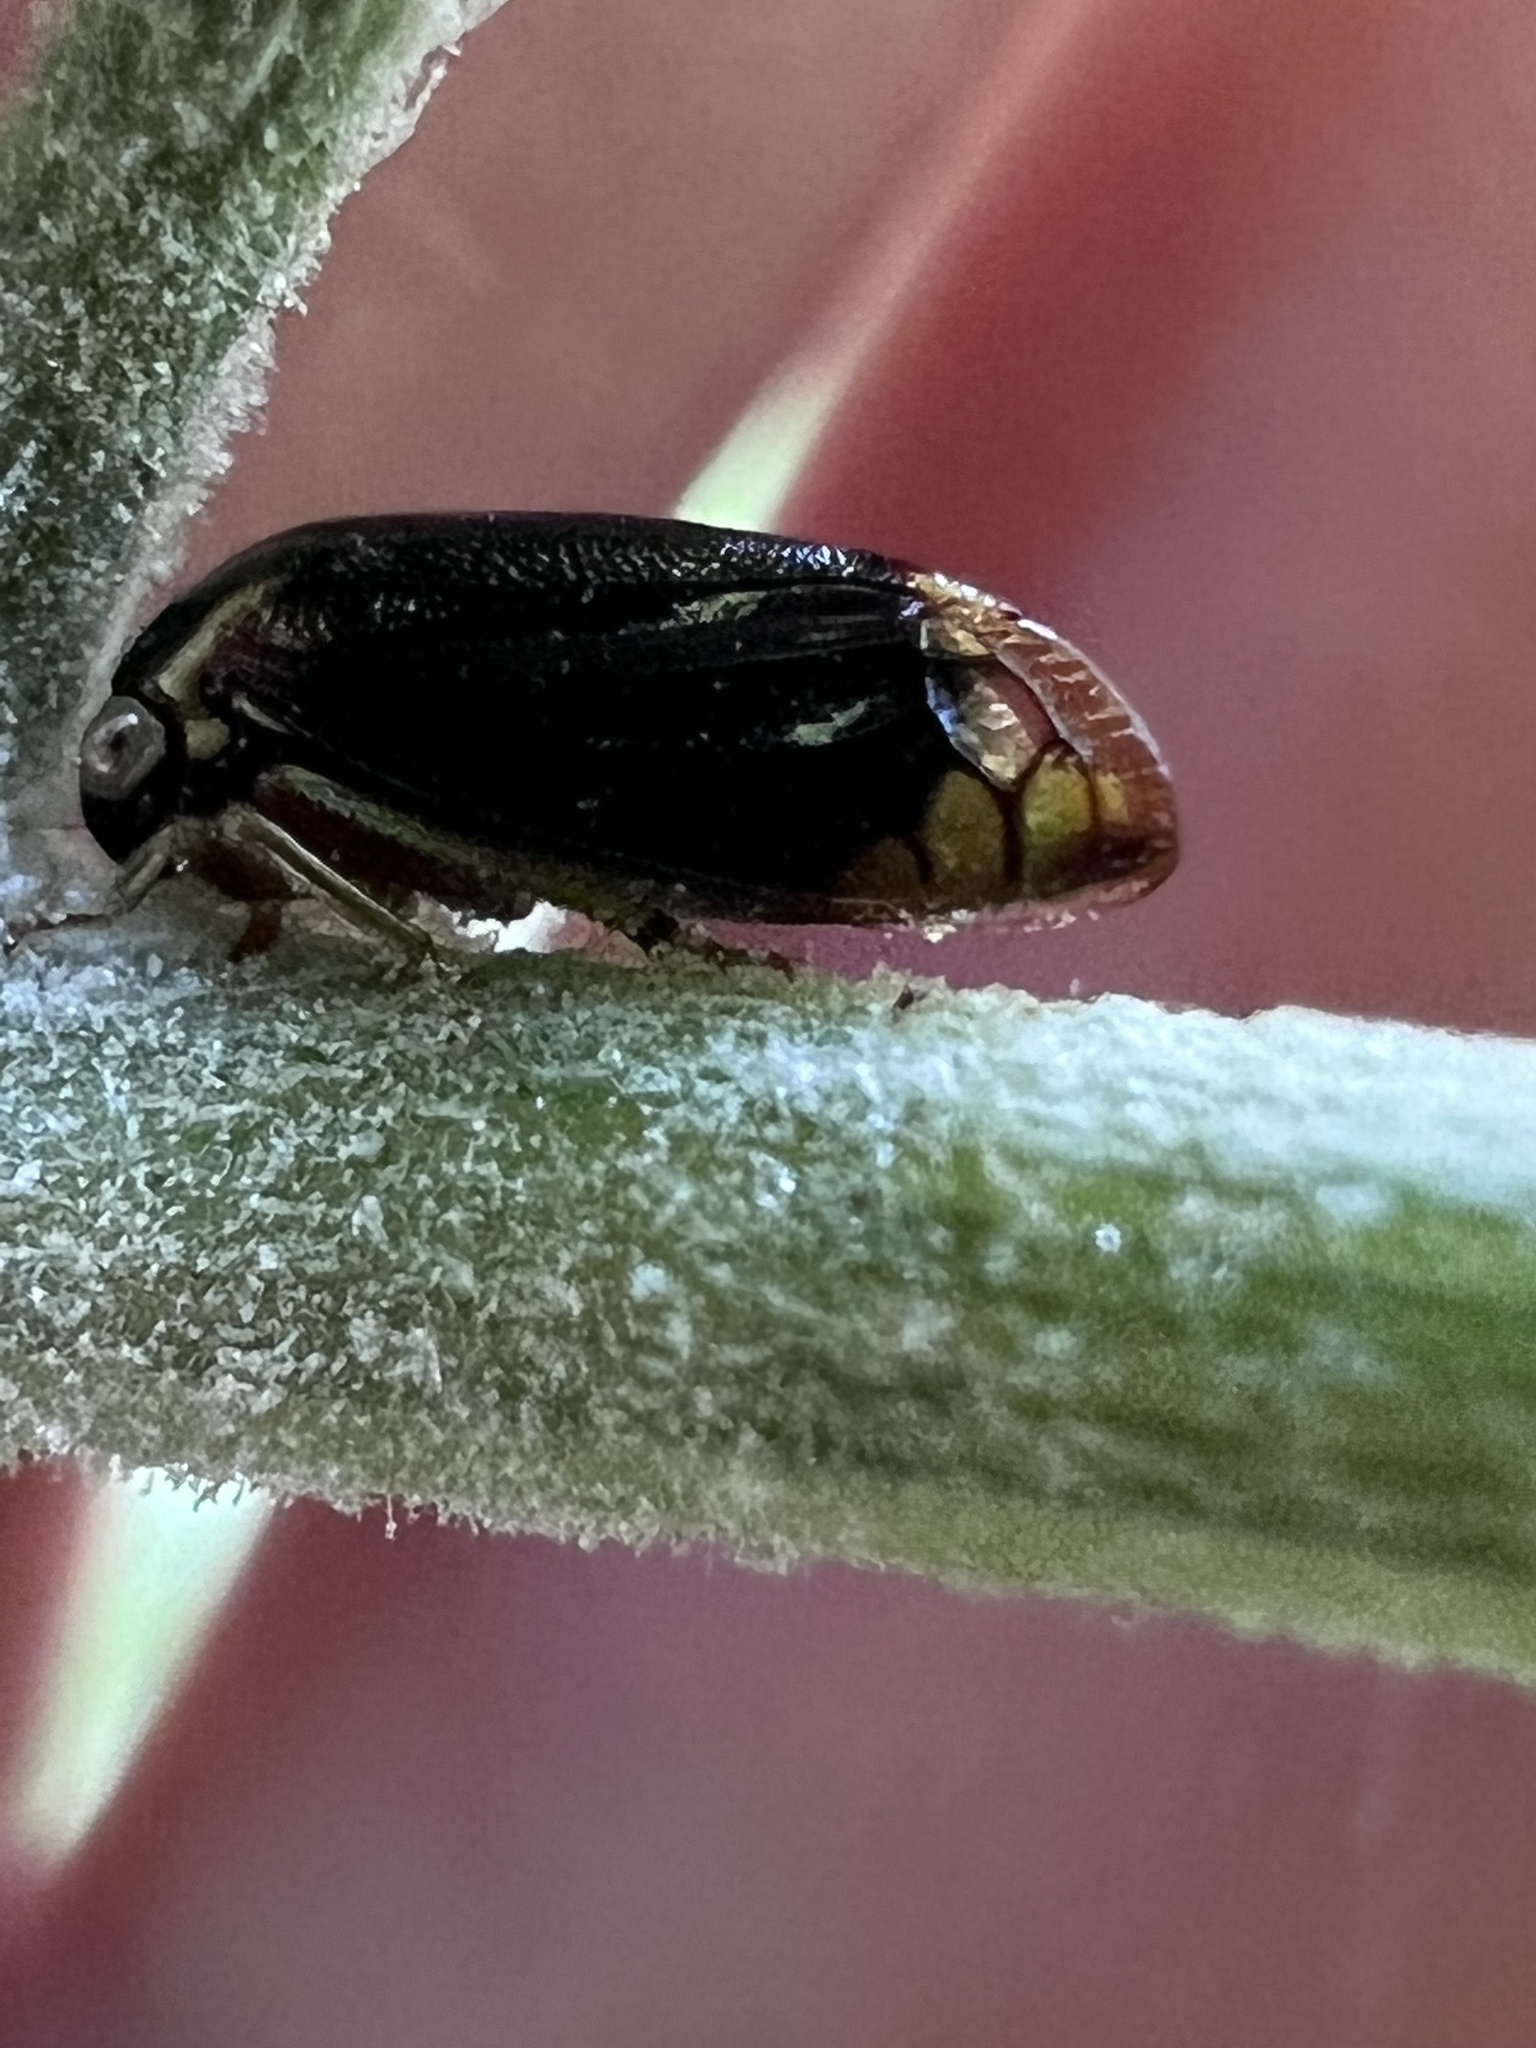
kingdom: Animalia
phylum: Arthropoda
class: Insecta
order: Hemiptera
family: Membracidae
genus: Acutalis
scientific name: Acutalis tartarea
